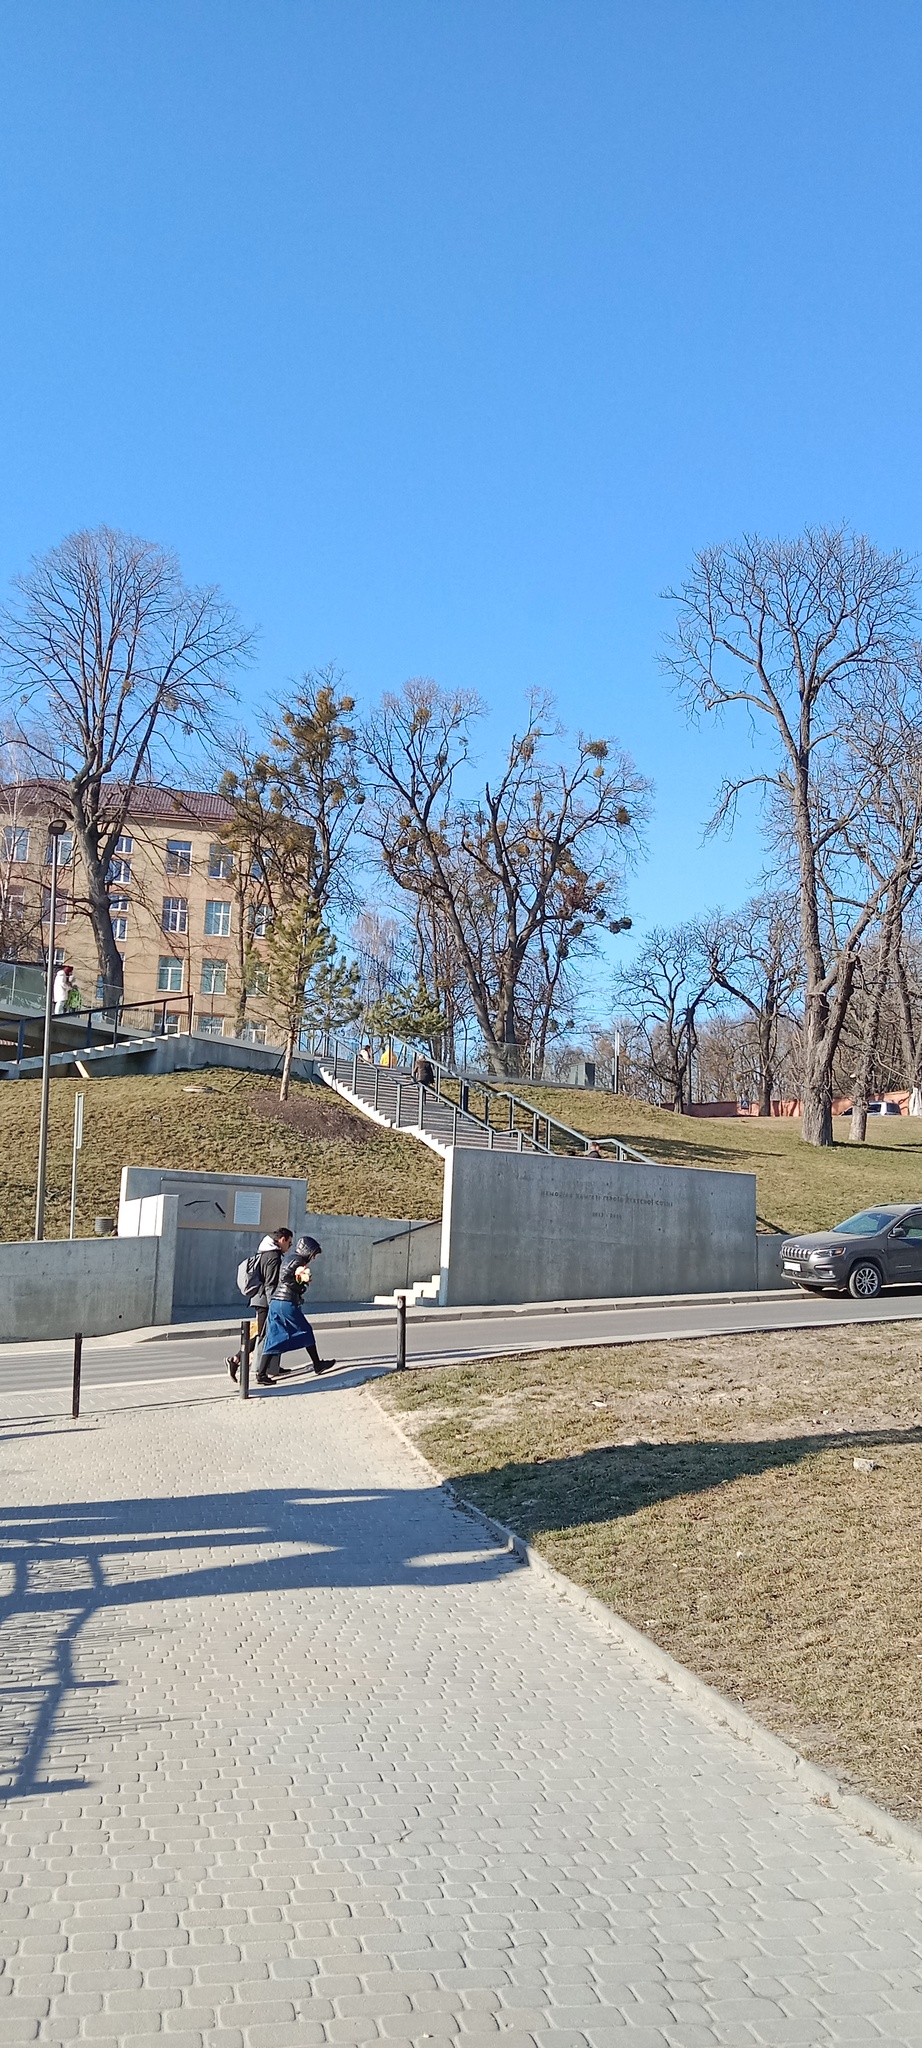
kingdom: Plantae
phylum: Tracheophyta
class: Magnoliopsida
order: Santalales
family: Viscaceae
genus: Viscum
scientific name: Viscum album
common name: Mistletoe
